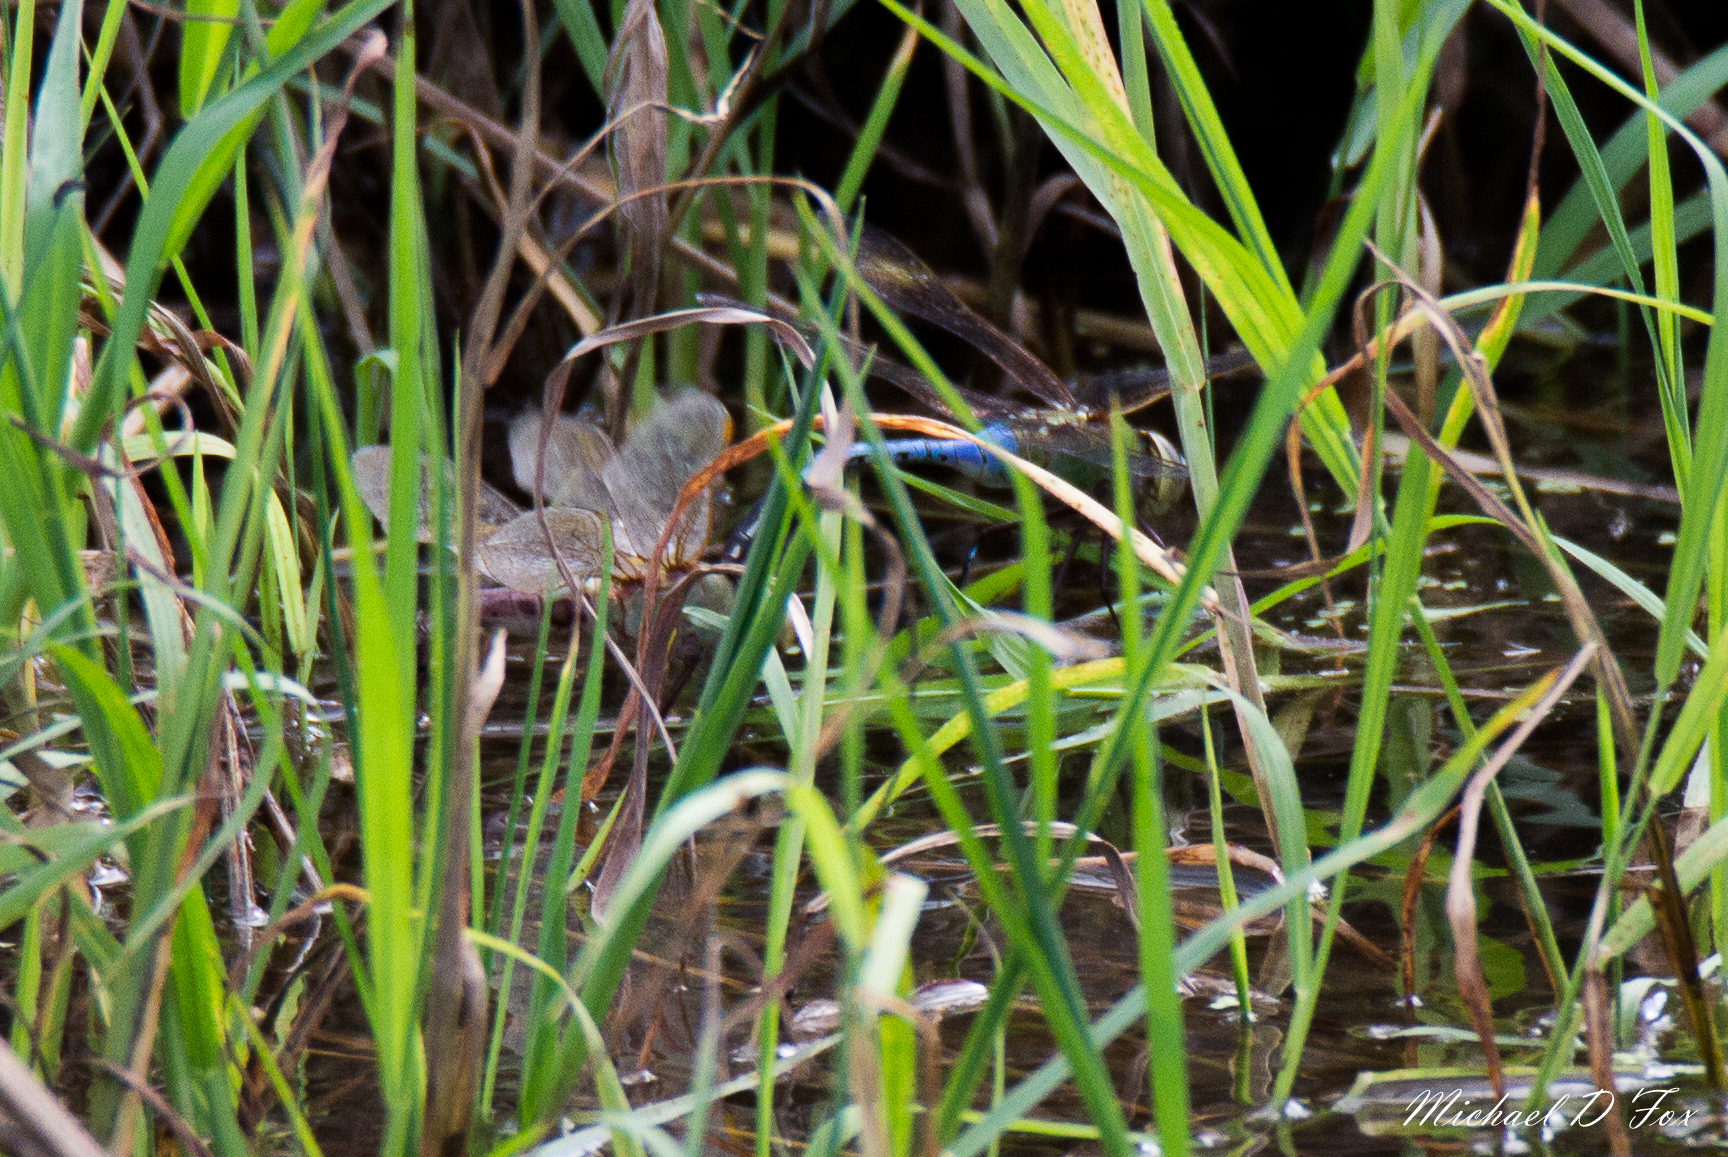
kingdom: Animalia
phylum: Arthropoda
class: Insecta
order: Odonata
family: Aeshnidae
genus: Anax
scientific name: Anax junius
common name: Common green darner
